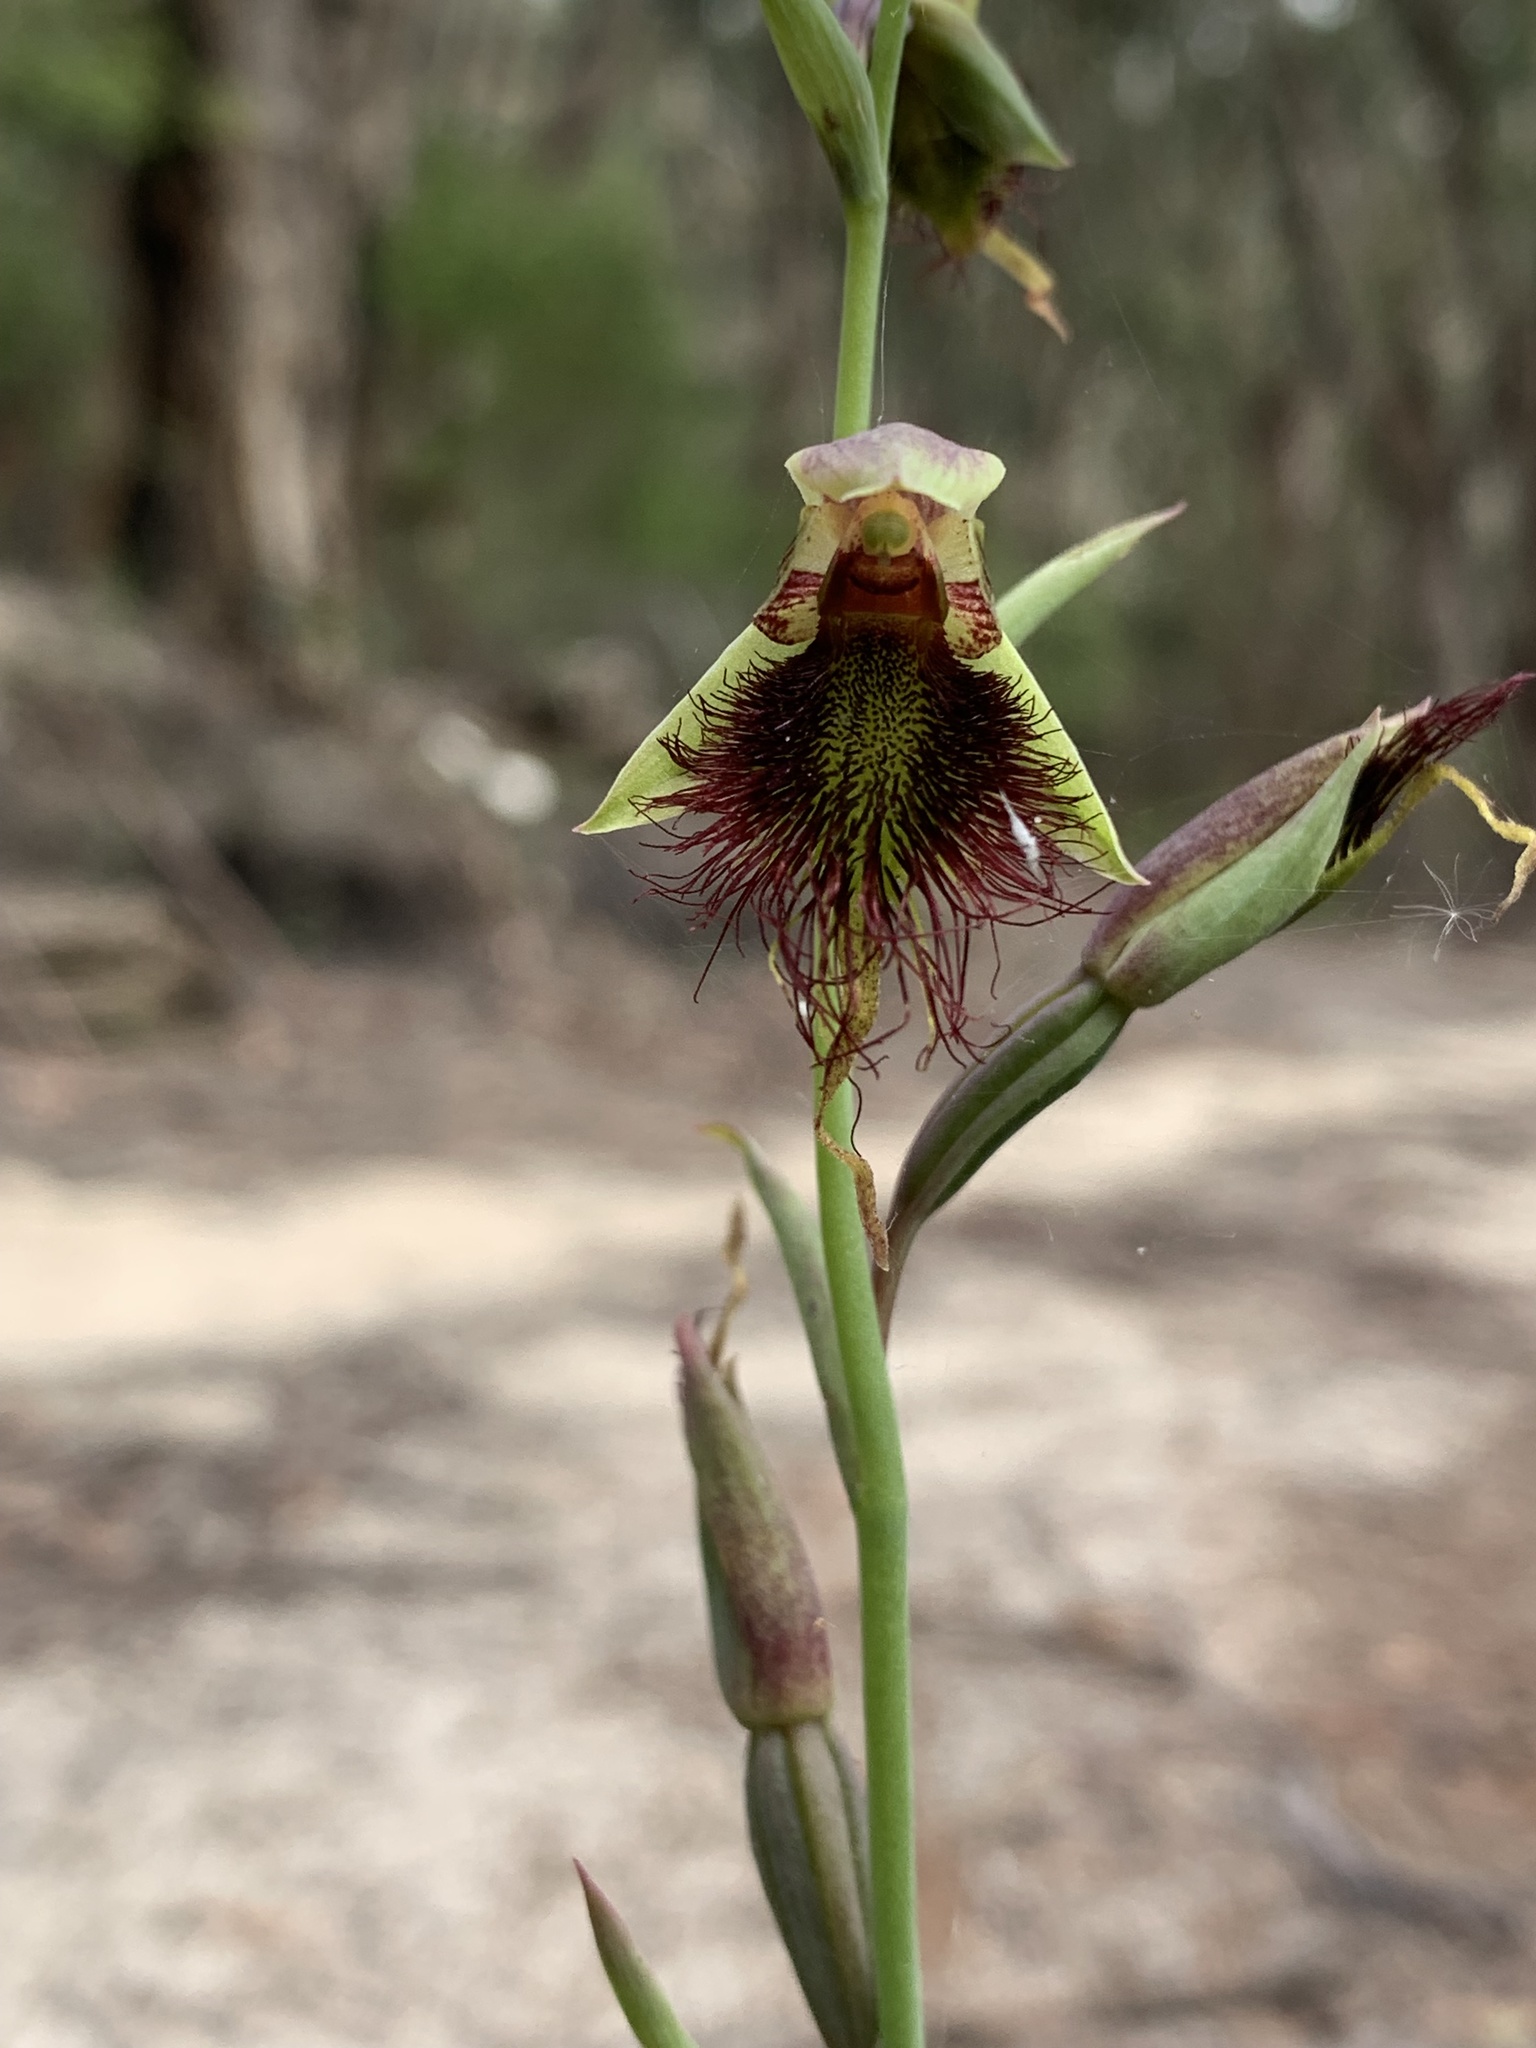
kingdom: Plantae
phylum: Tracheophyta
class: Liliopsida
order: Asparagales
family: Orchidaceae
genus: Calochilus
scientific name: Calochilus paludosus
